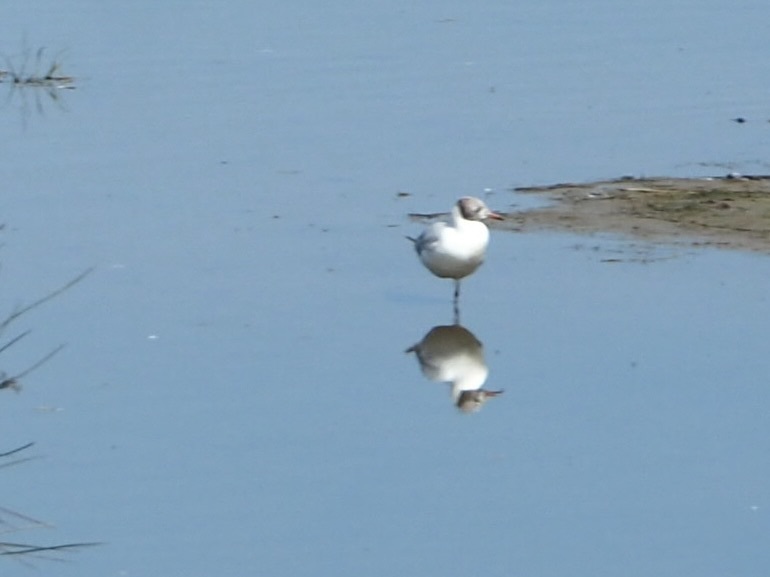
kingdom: Animalia
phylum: Chordata
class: Aves
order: Charadriiformes
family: Laridae
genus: Chroicocephalus
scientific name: Chroicocephalus ridibundus
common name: Black-headed gull
